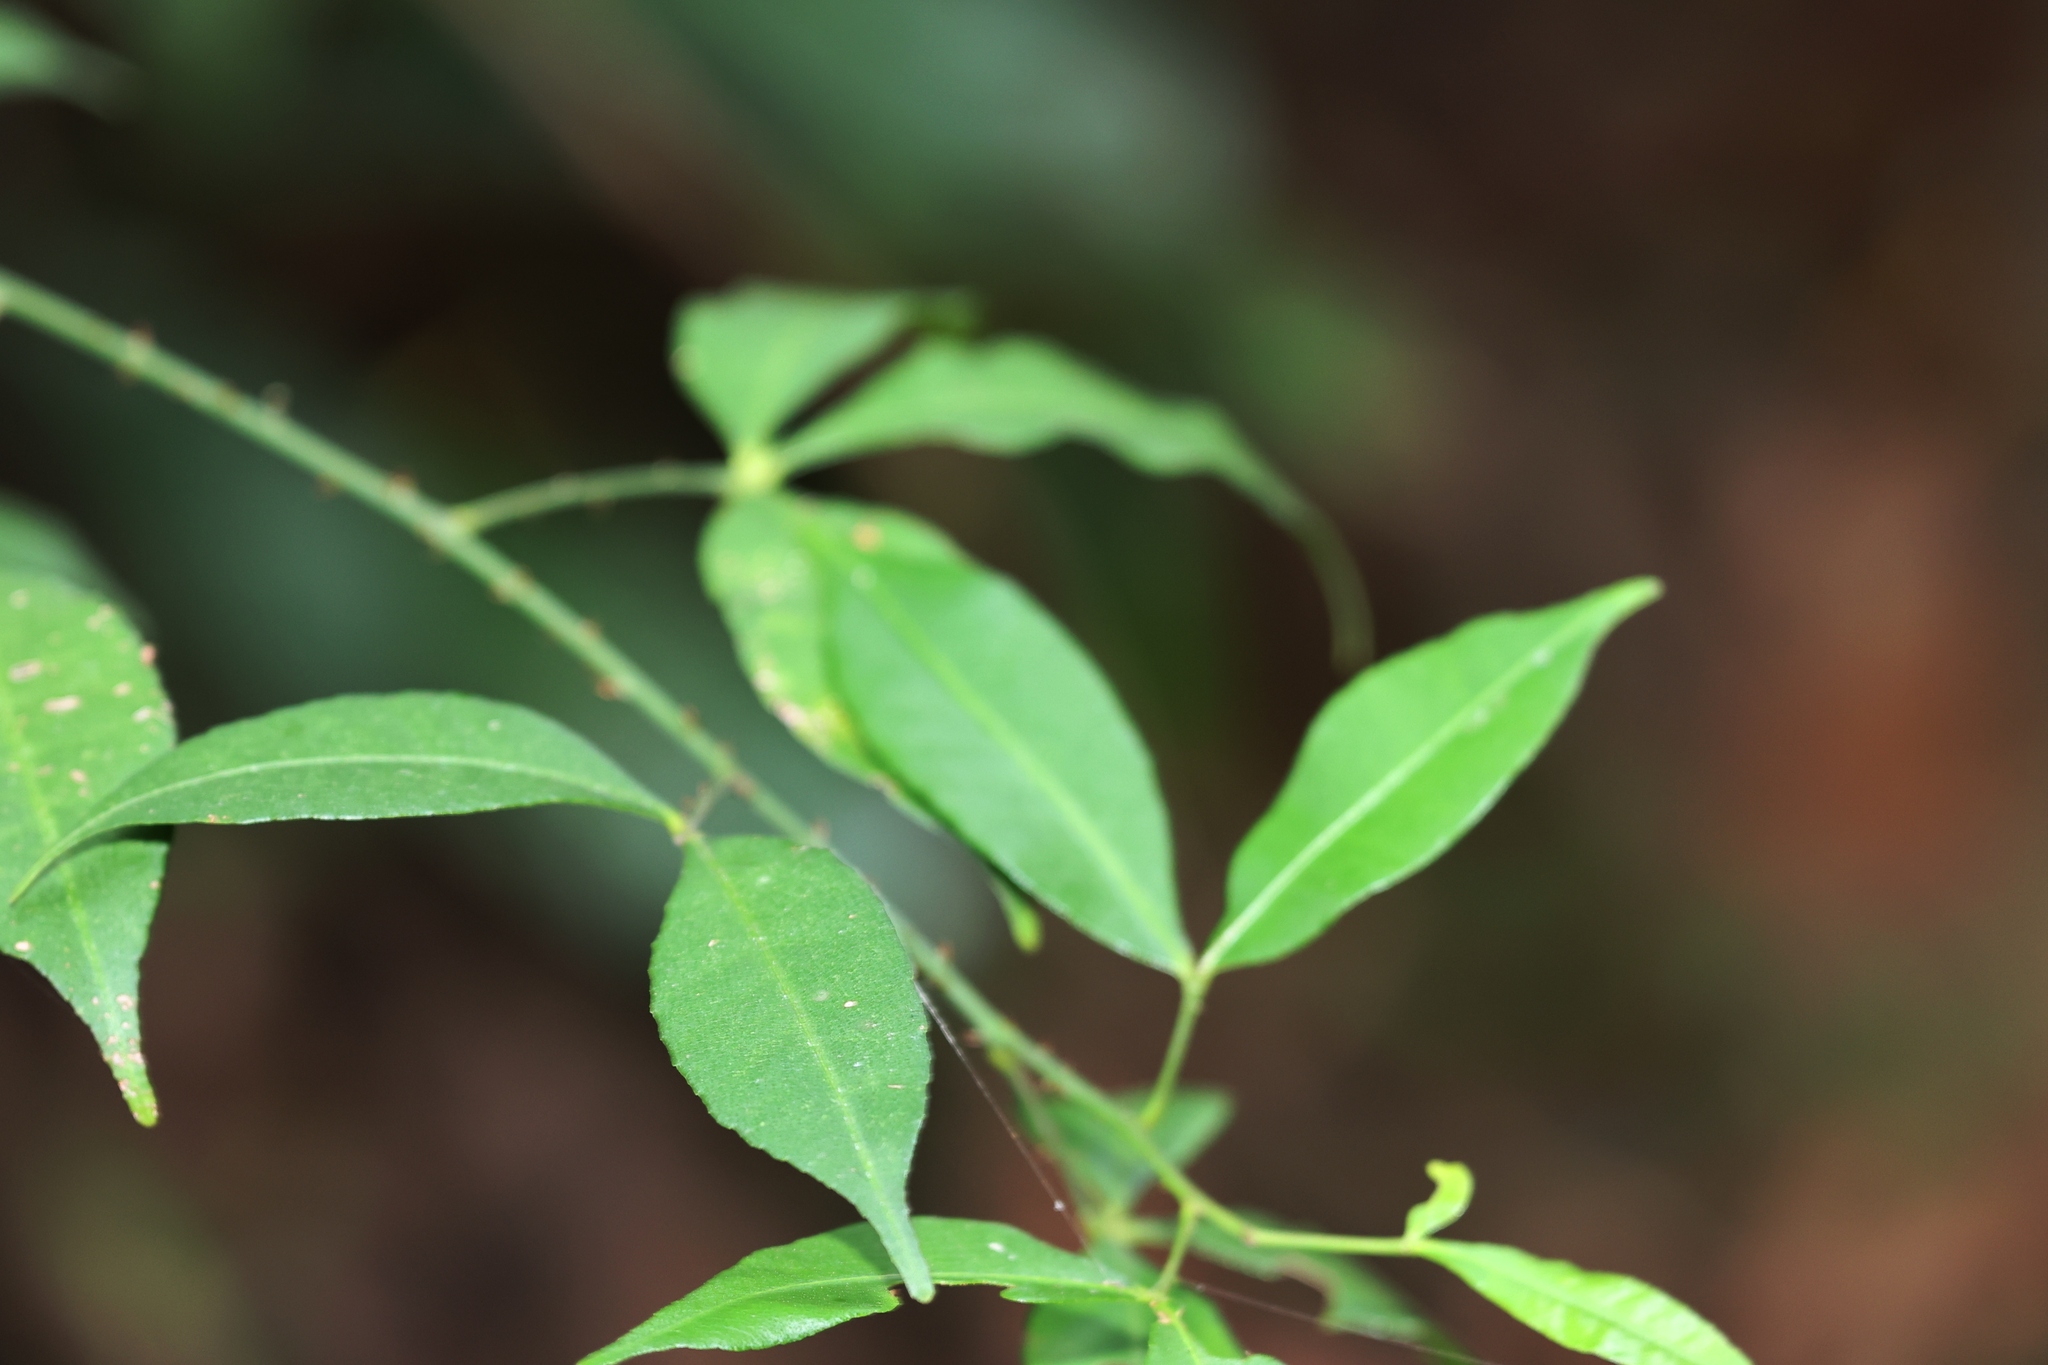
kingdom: Plantae
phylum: Tracheophyta
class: Magnoliopsida
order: Sapindales
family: Rutaceae
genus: Zanthoxylum
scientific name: Zanthoxylum asiaticum
